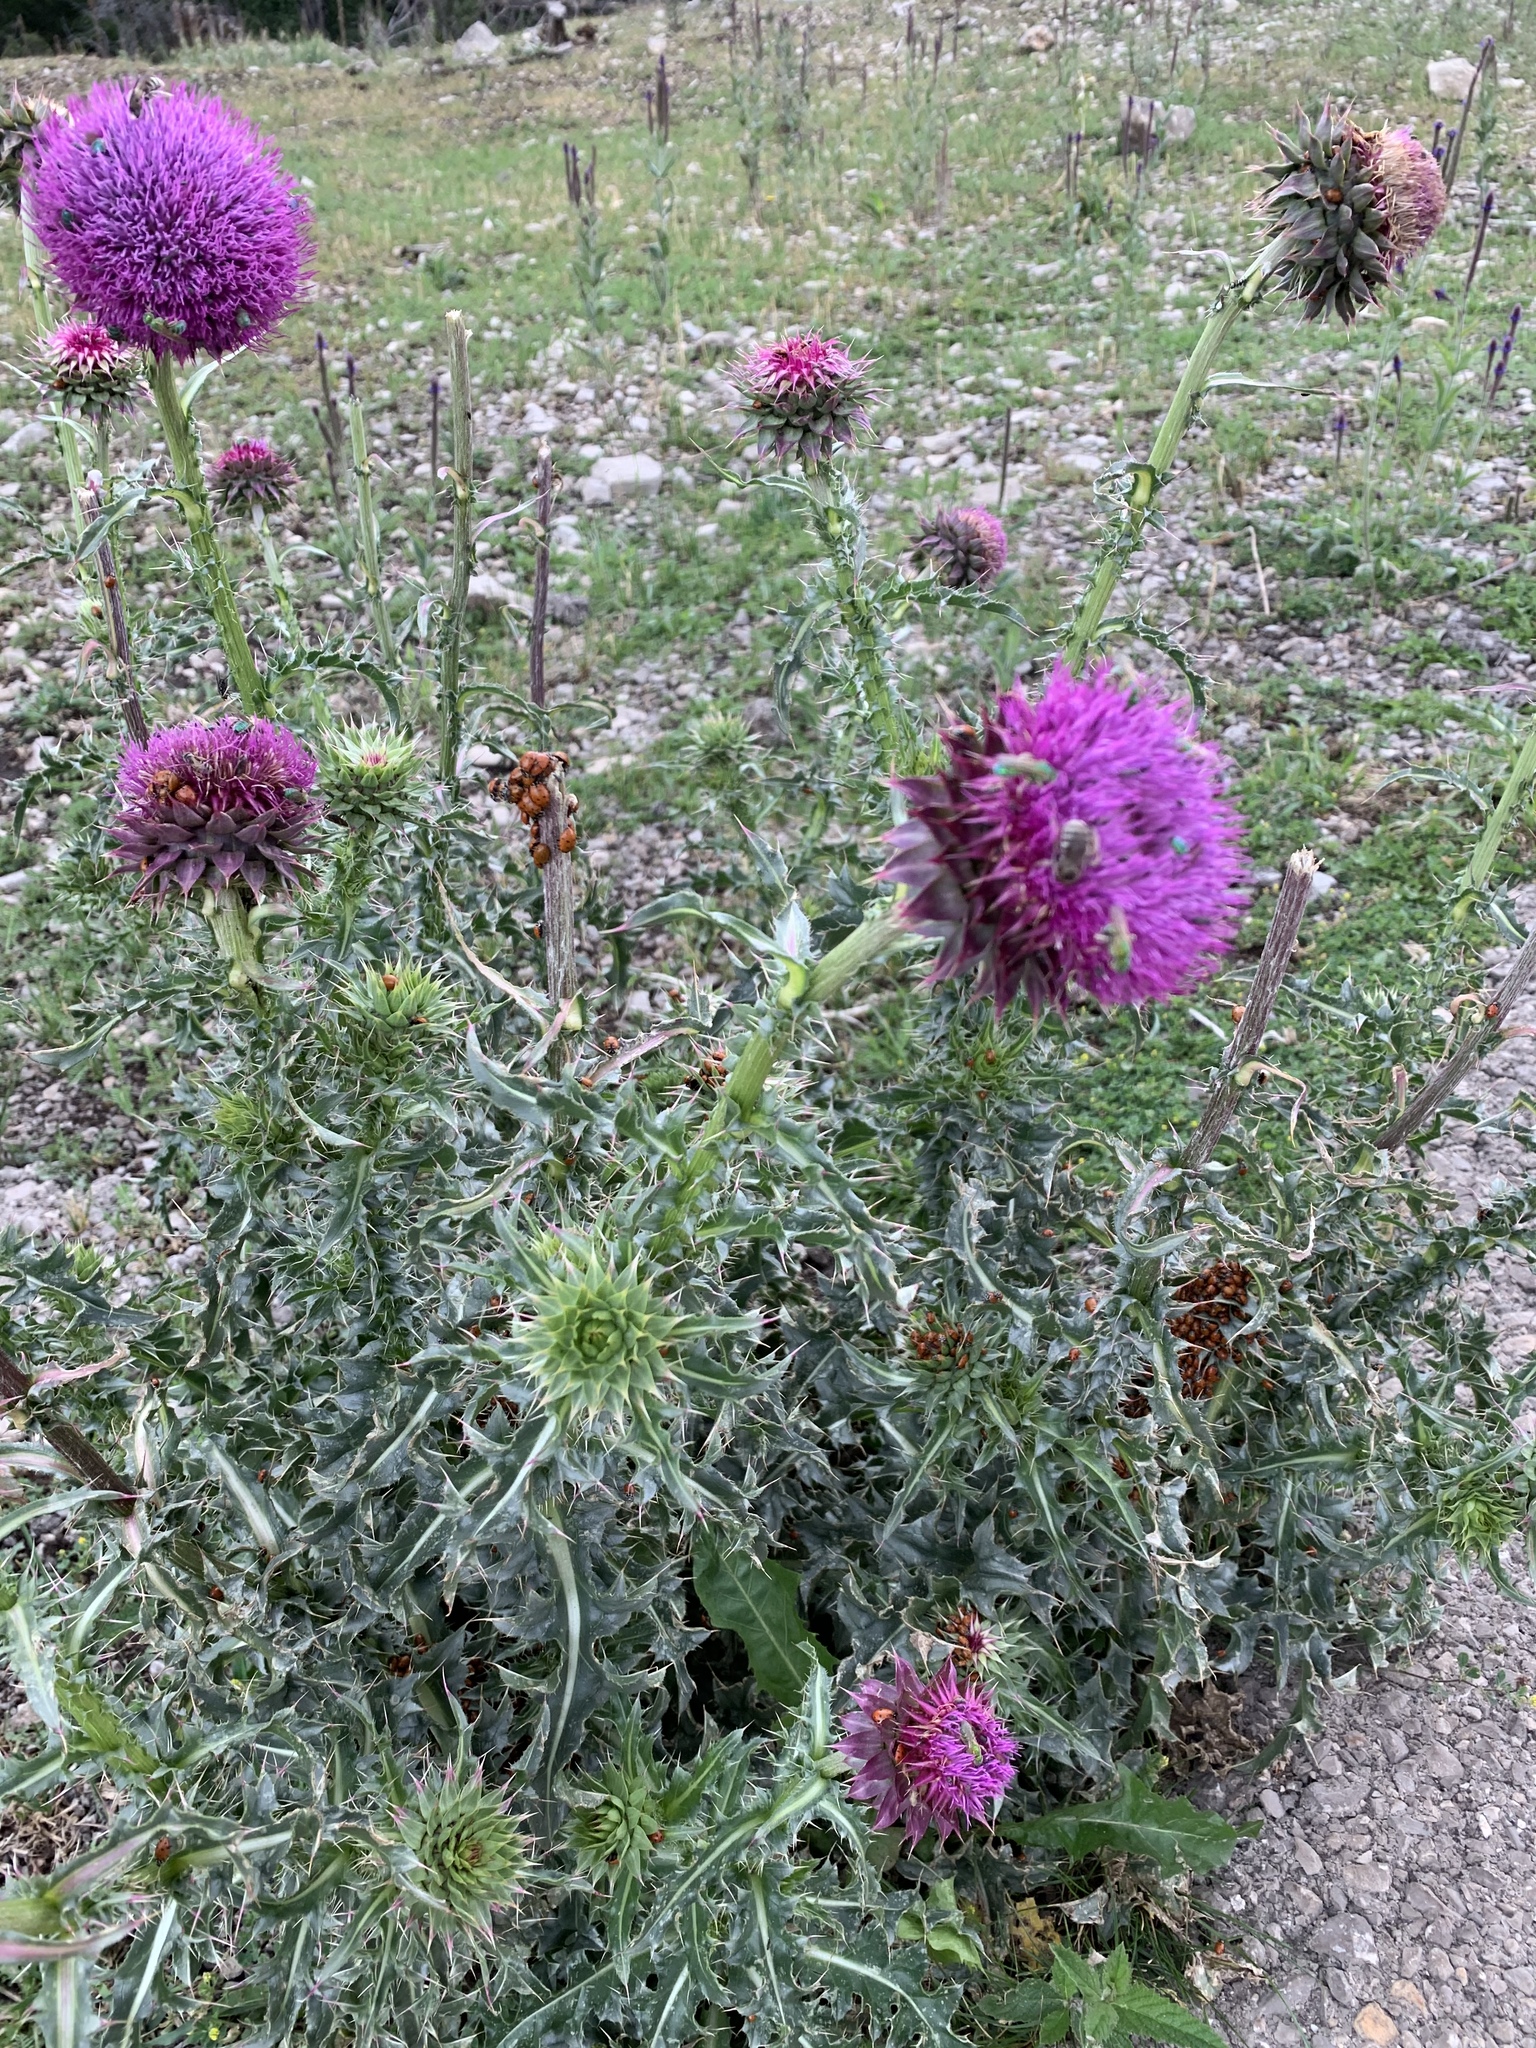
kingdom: Plantae
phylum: Tracheophyta
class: Magnoliopsida
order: Asterales
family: Asteraceae
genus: Carduus
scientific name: Carduus nutans
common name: Musk thistle
